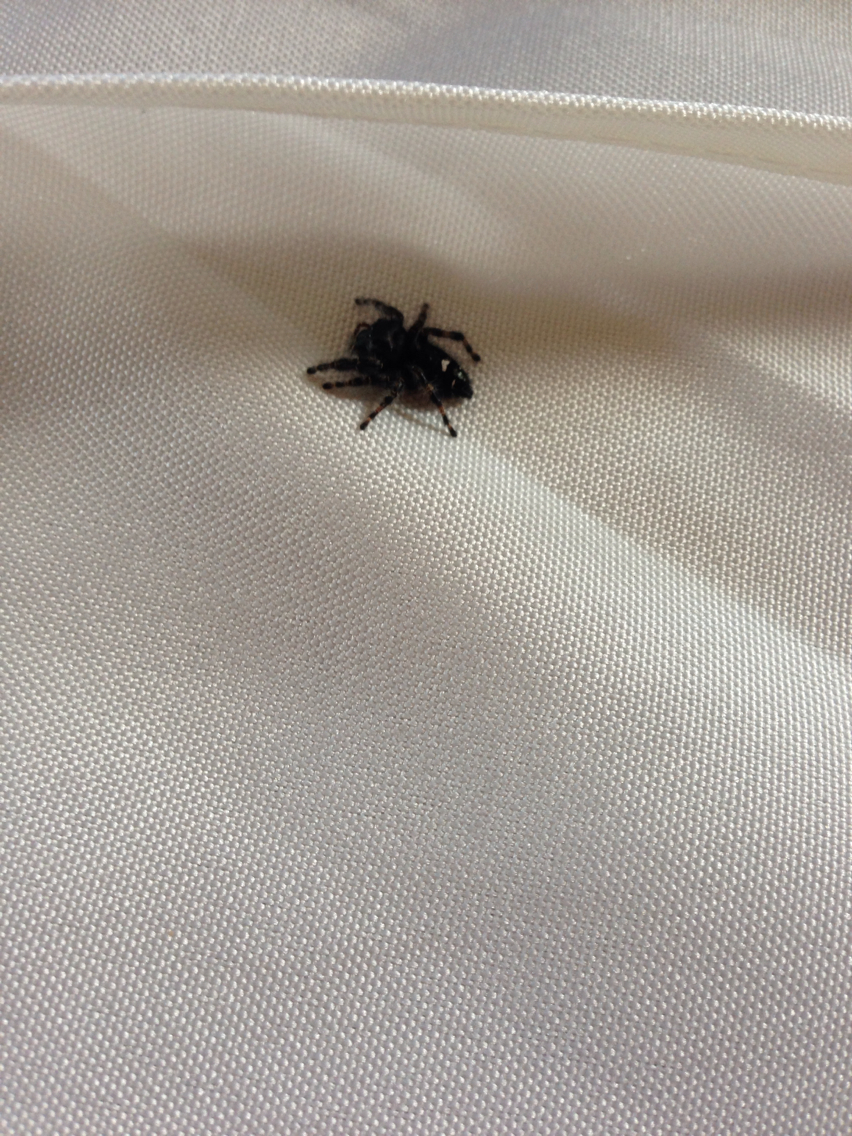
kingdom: Animalia
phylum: Arthropoda
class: Arachnida
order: Araneae
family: Salticidae
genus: Phidippus
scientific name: Phidippus audax
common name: Bold jumper
